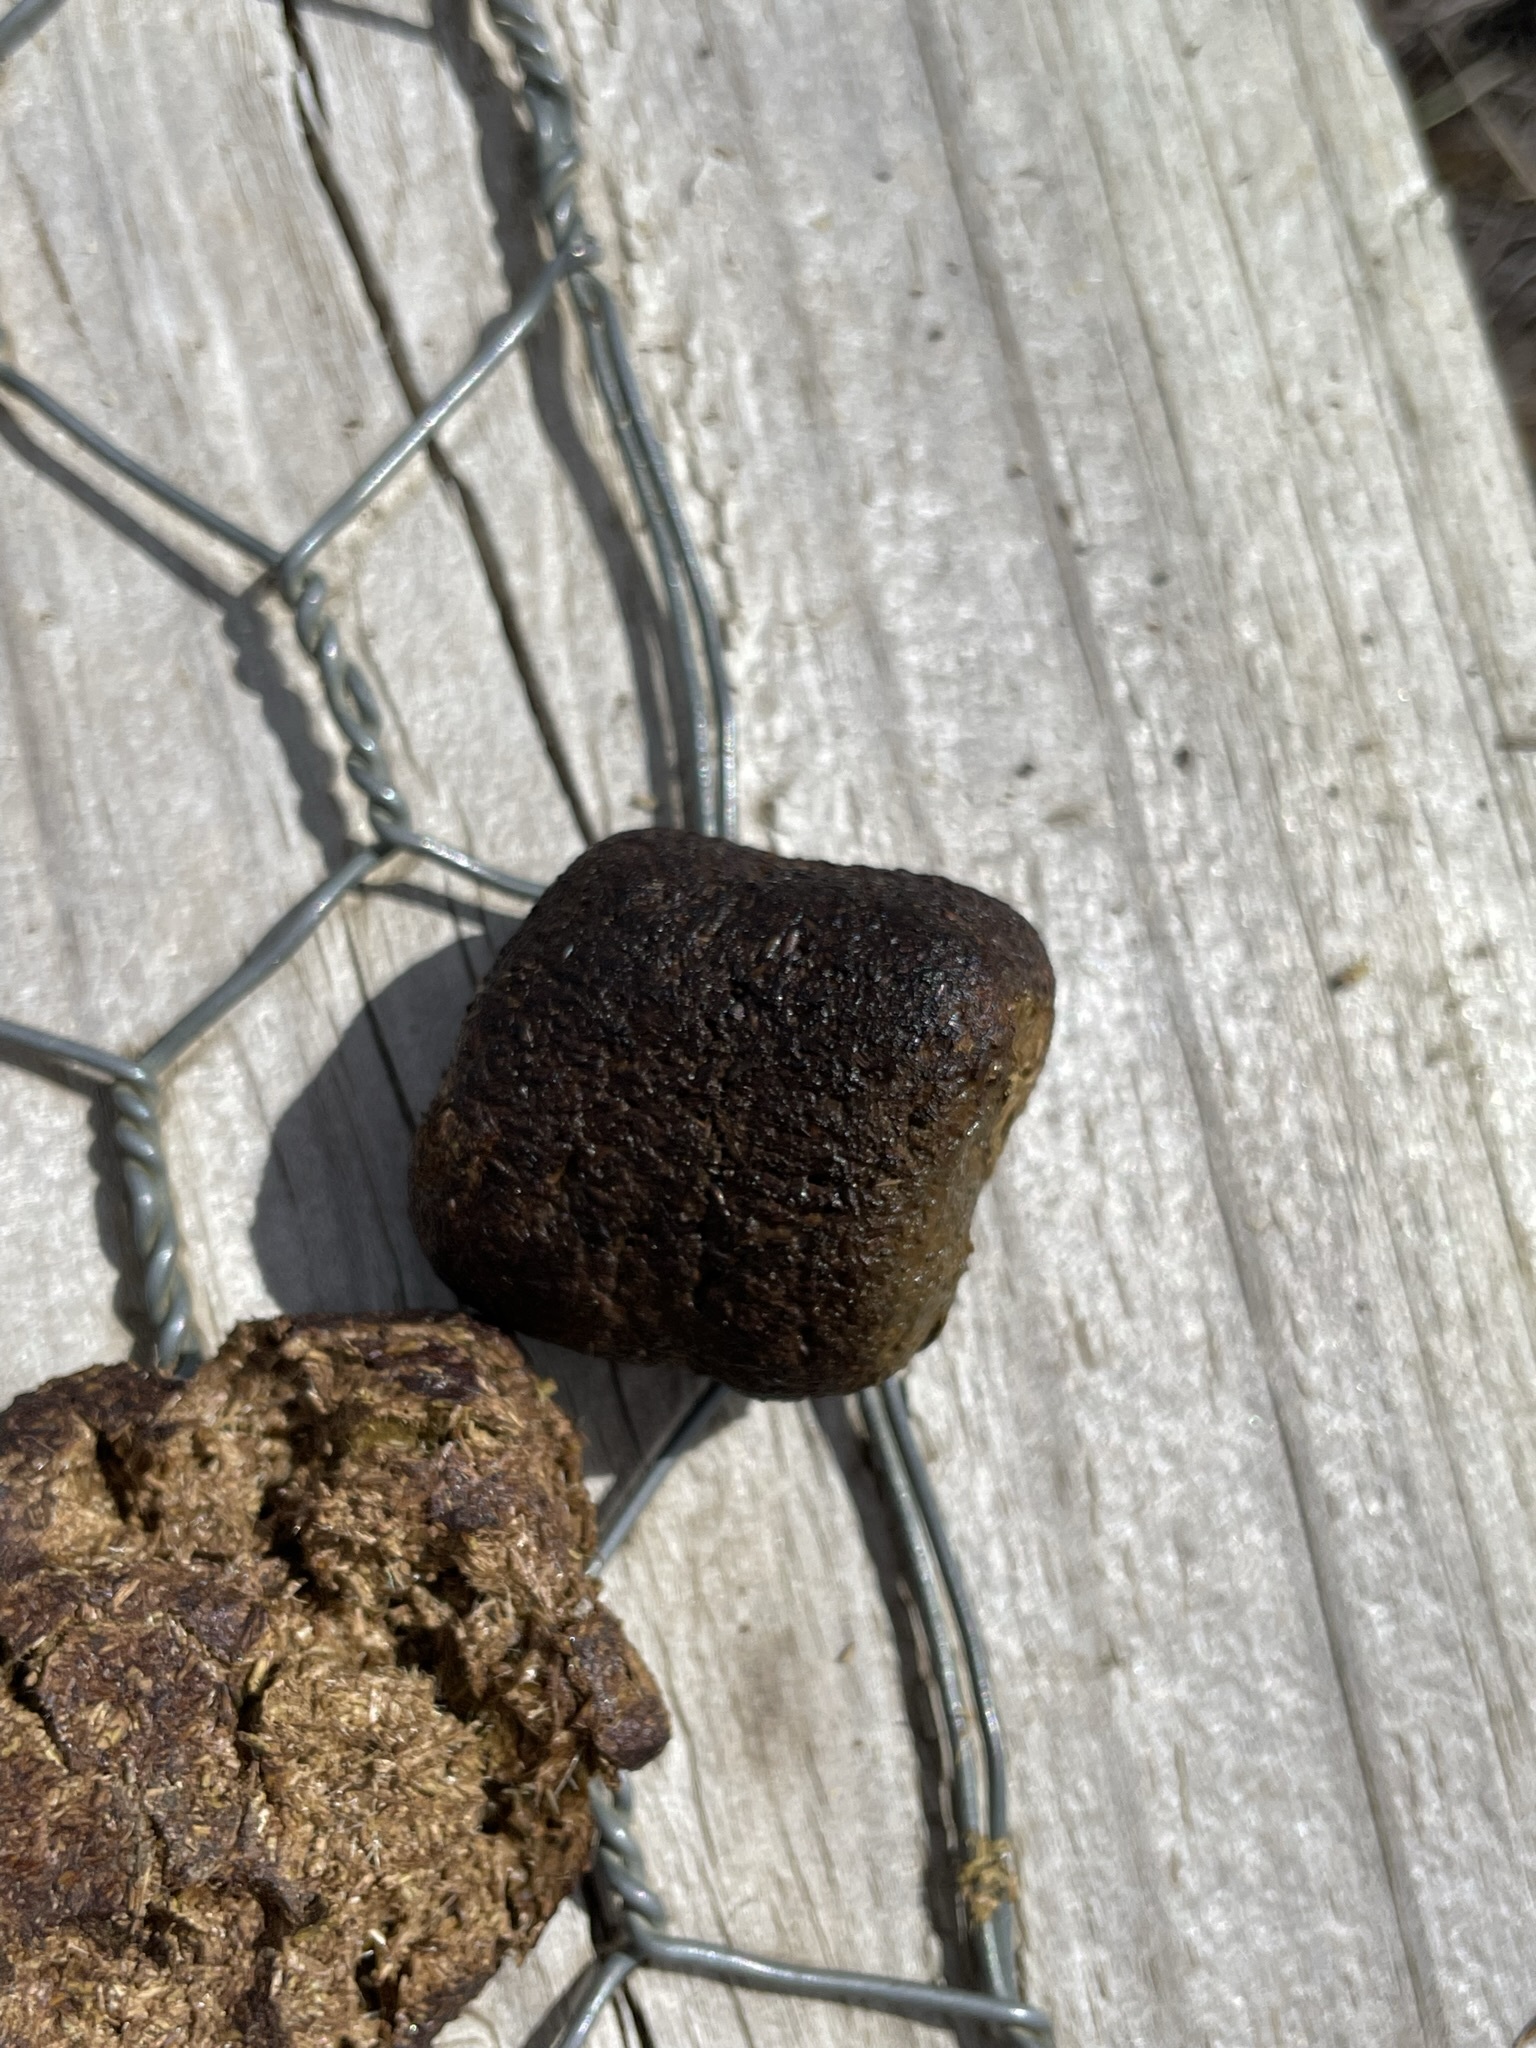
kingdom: Animalia
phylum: Chordata
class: Mammalia
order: Diprotodontia
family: Vombatidae
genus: Vombatus
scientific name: Vombatus ursinus
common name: Common wombat
